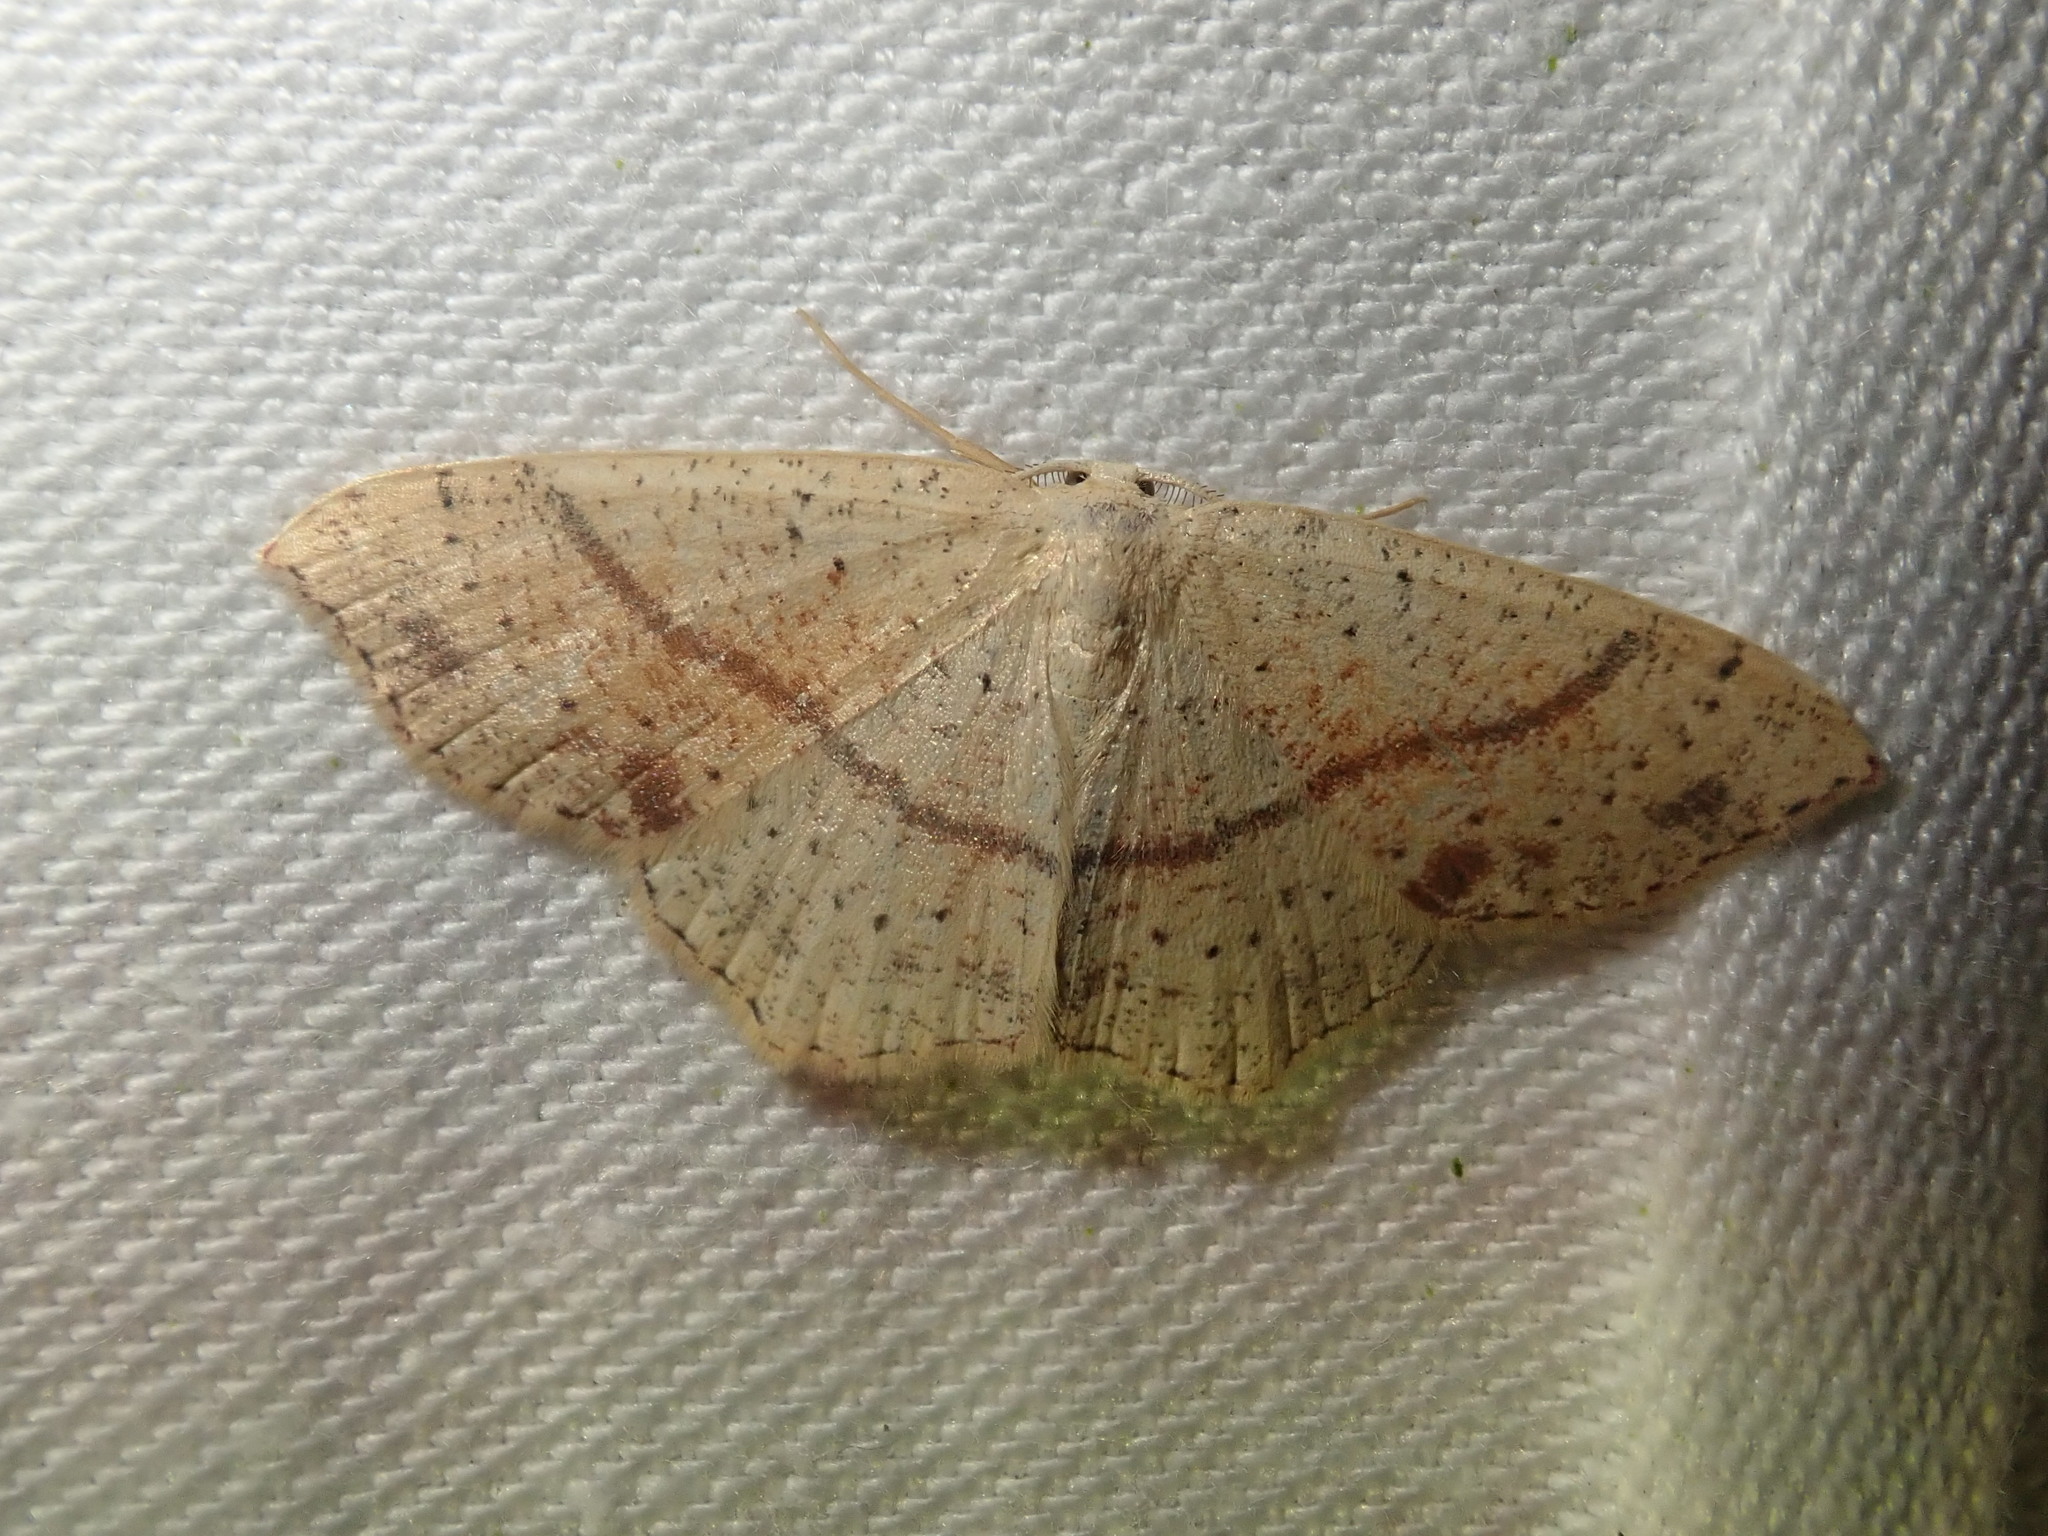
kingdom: Animalia
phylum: Arthropoda
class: Insecta
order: Lepidoptera
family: Geometridae
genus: Cyclophora
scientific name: Cyclophora punctaria
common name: Maiden's blush
